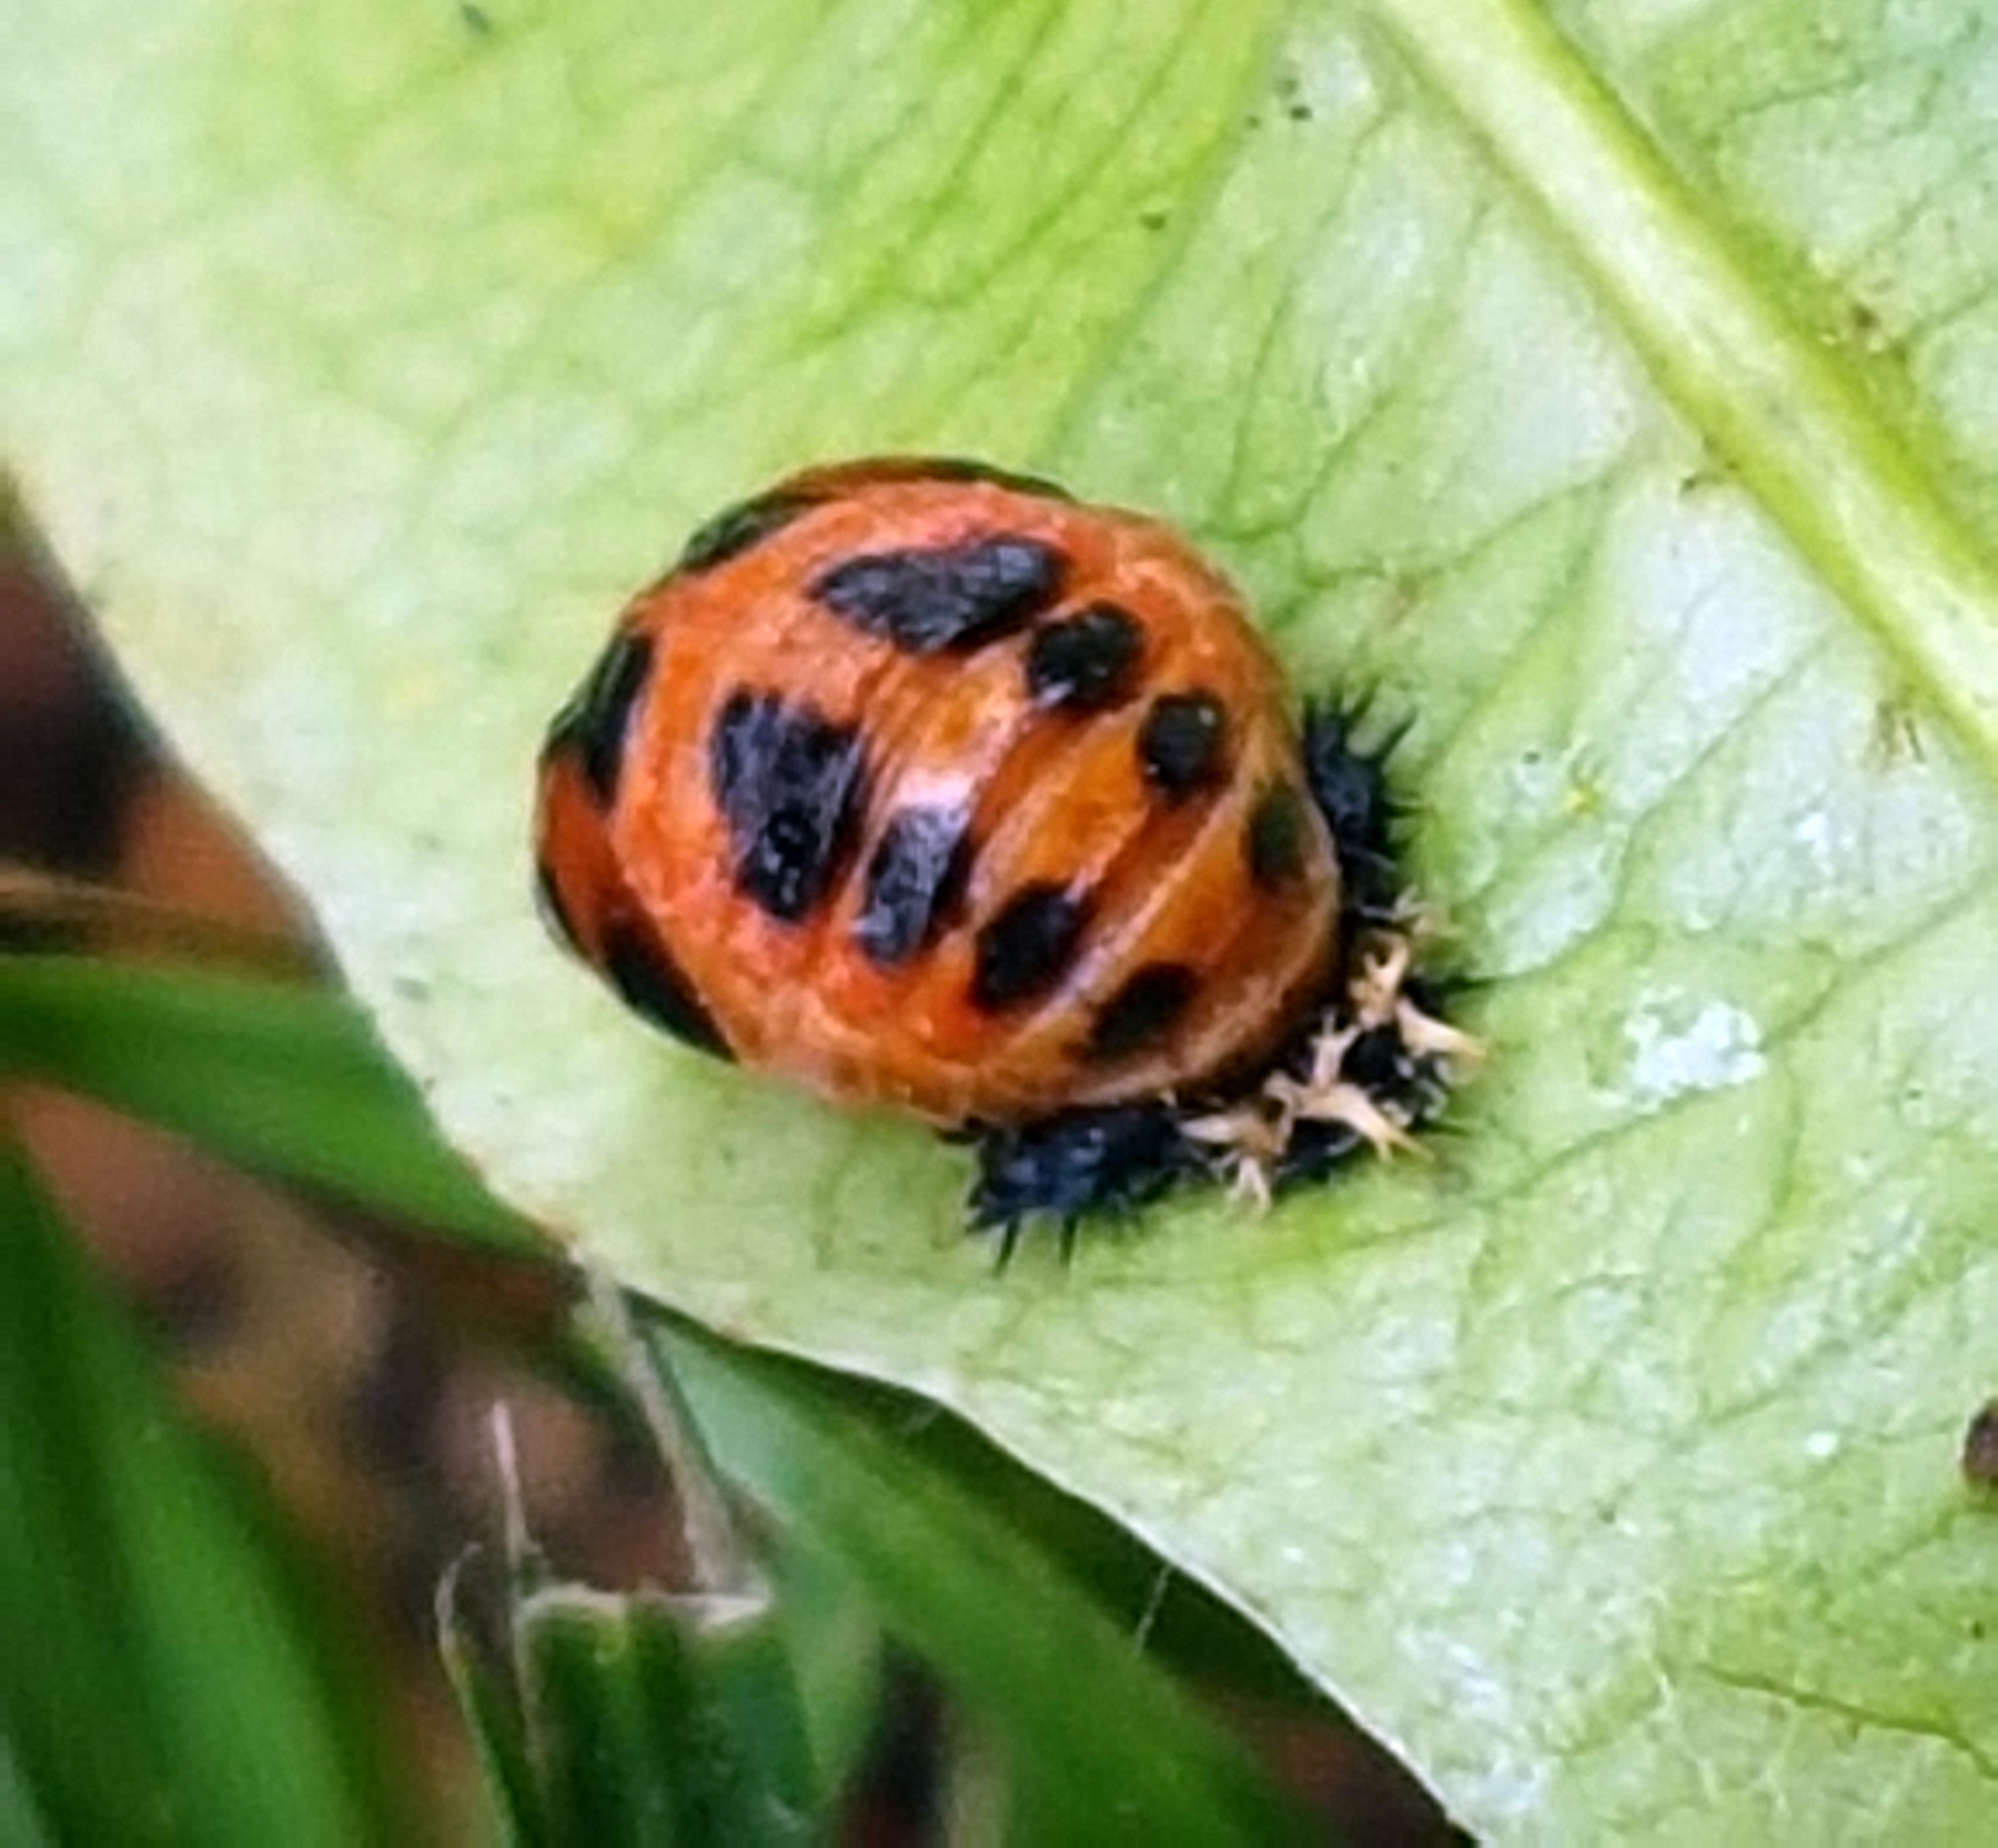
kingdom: Animalia
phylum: Arthropoda
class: Insecta
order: Coleoptera
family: Coccinellidae
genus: Harmonia
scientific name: Harmonia axyridis
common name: Harlequin ladybird
